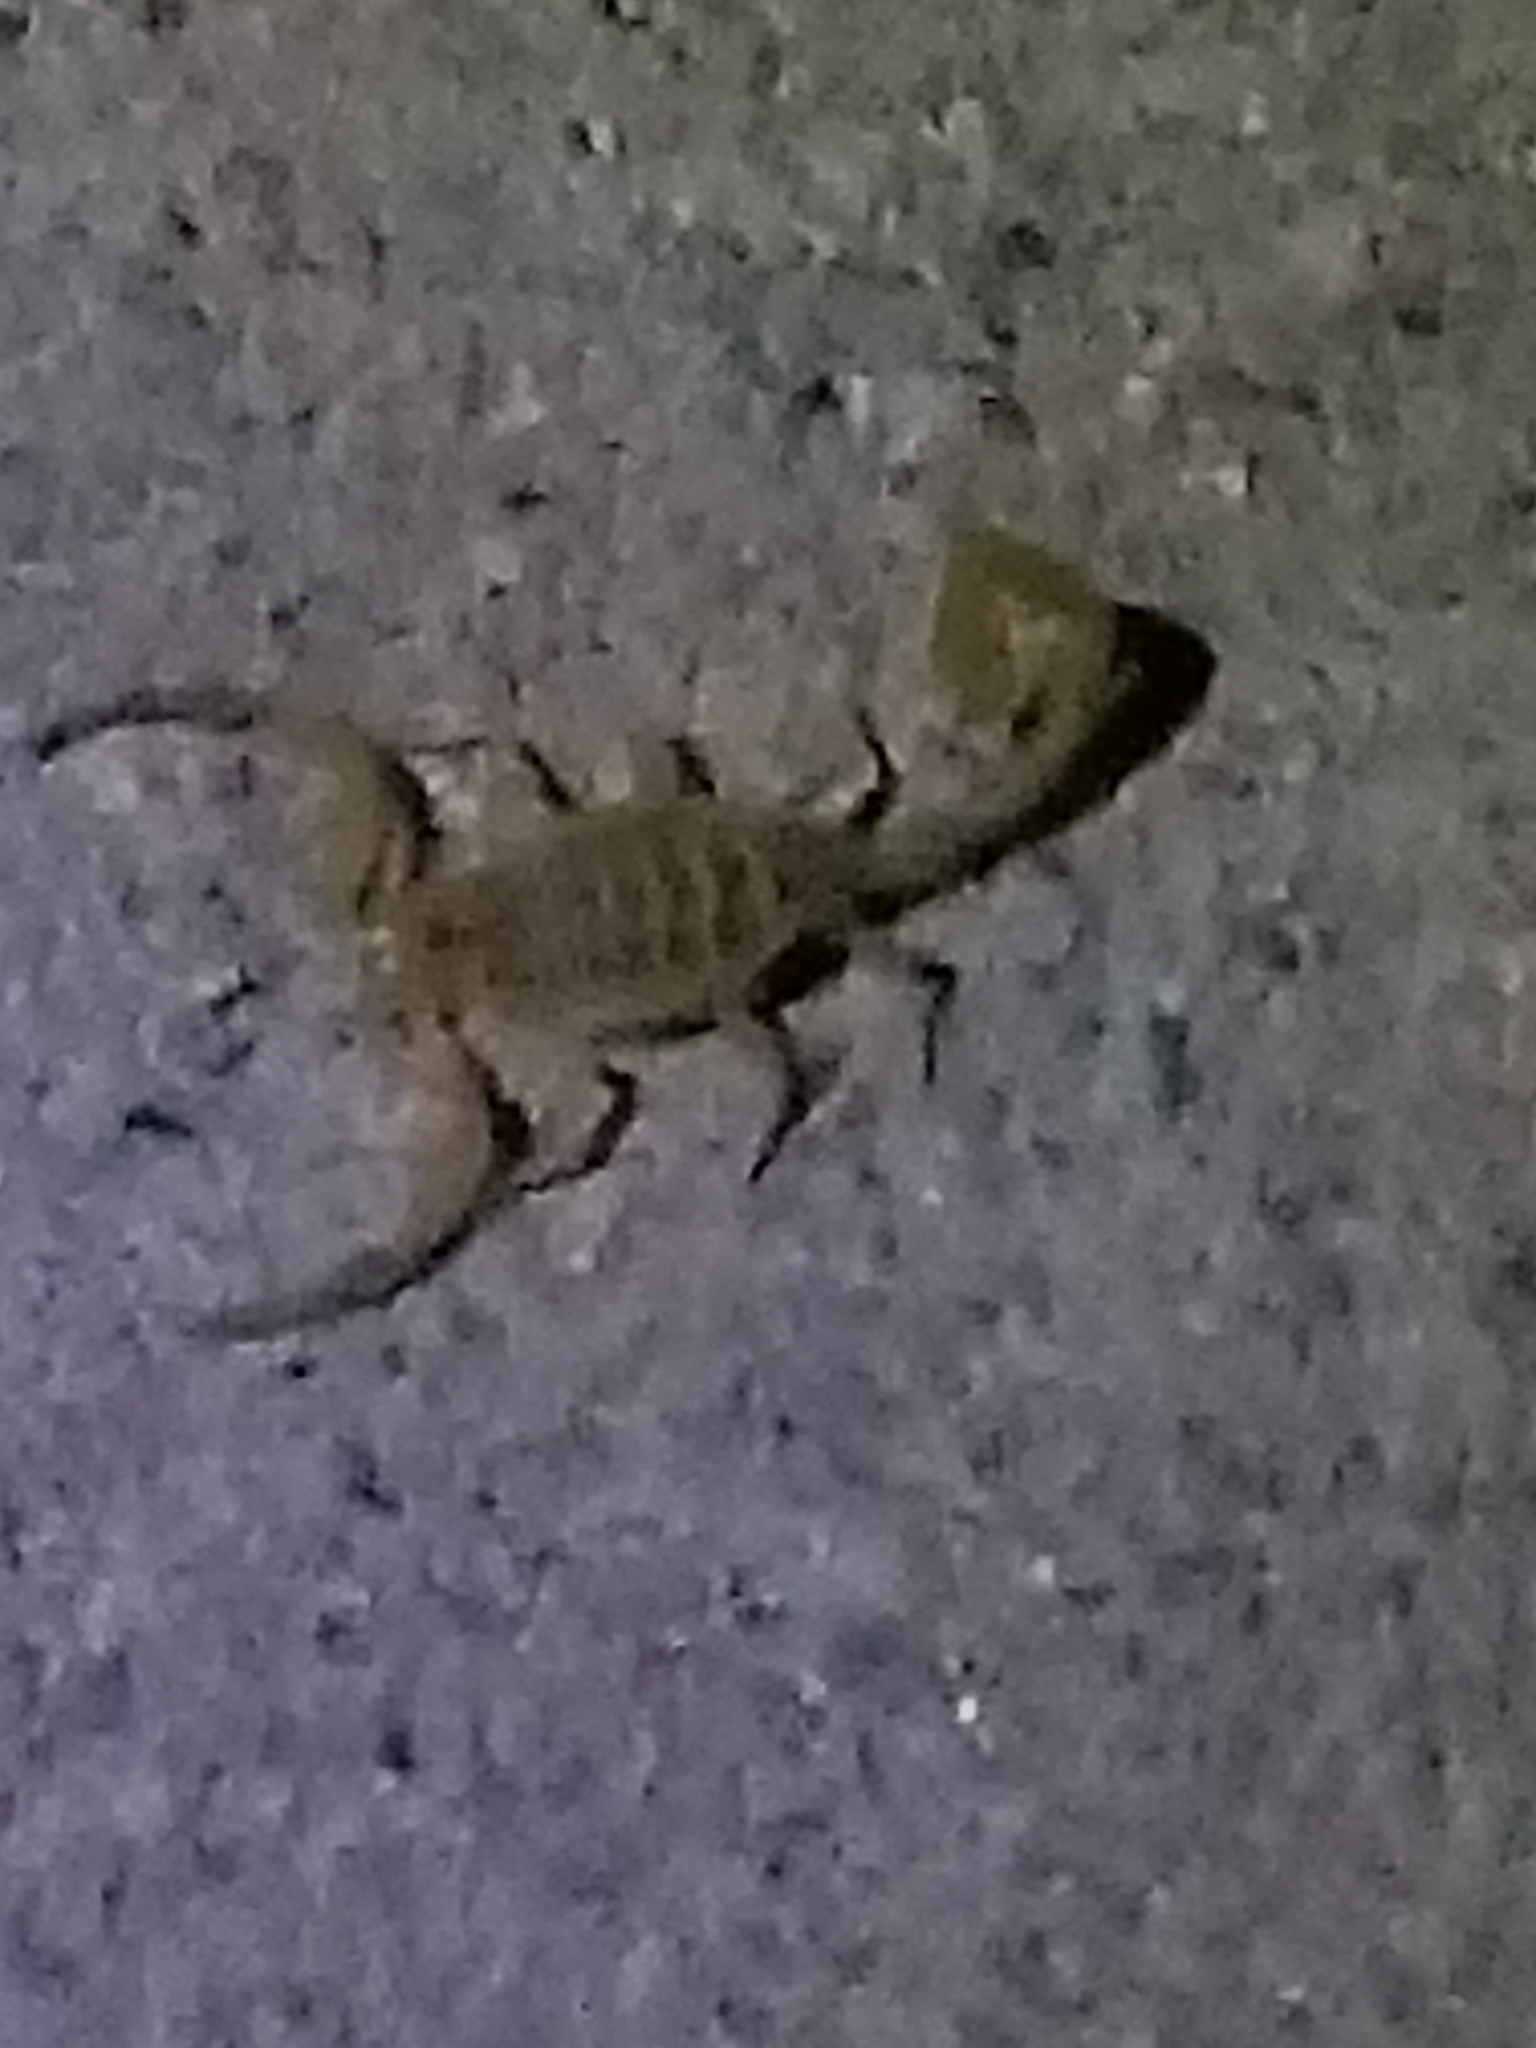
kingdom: Animalia
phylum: Arthropoda
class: Arachnida
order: Scorpiones
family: Buthidae
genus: Centruroides
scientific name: Centruroides sculpturatus
